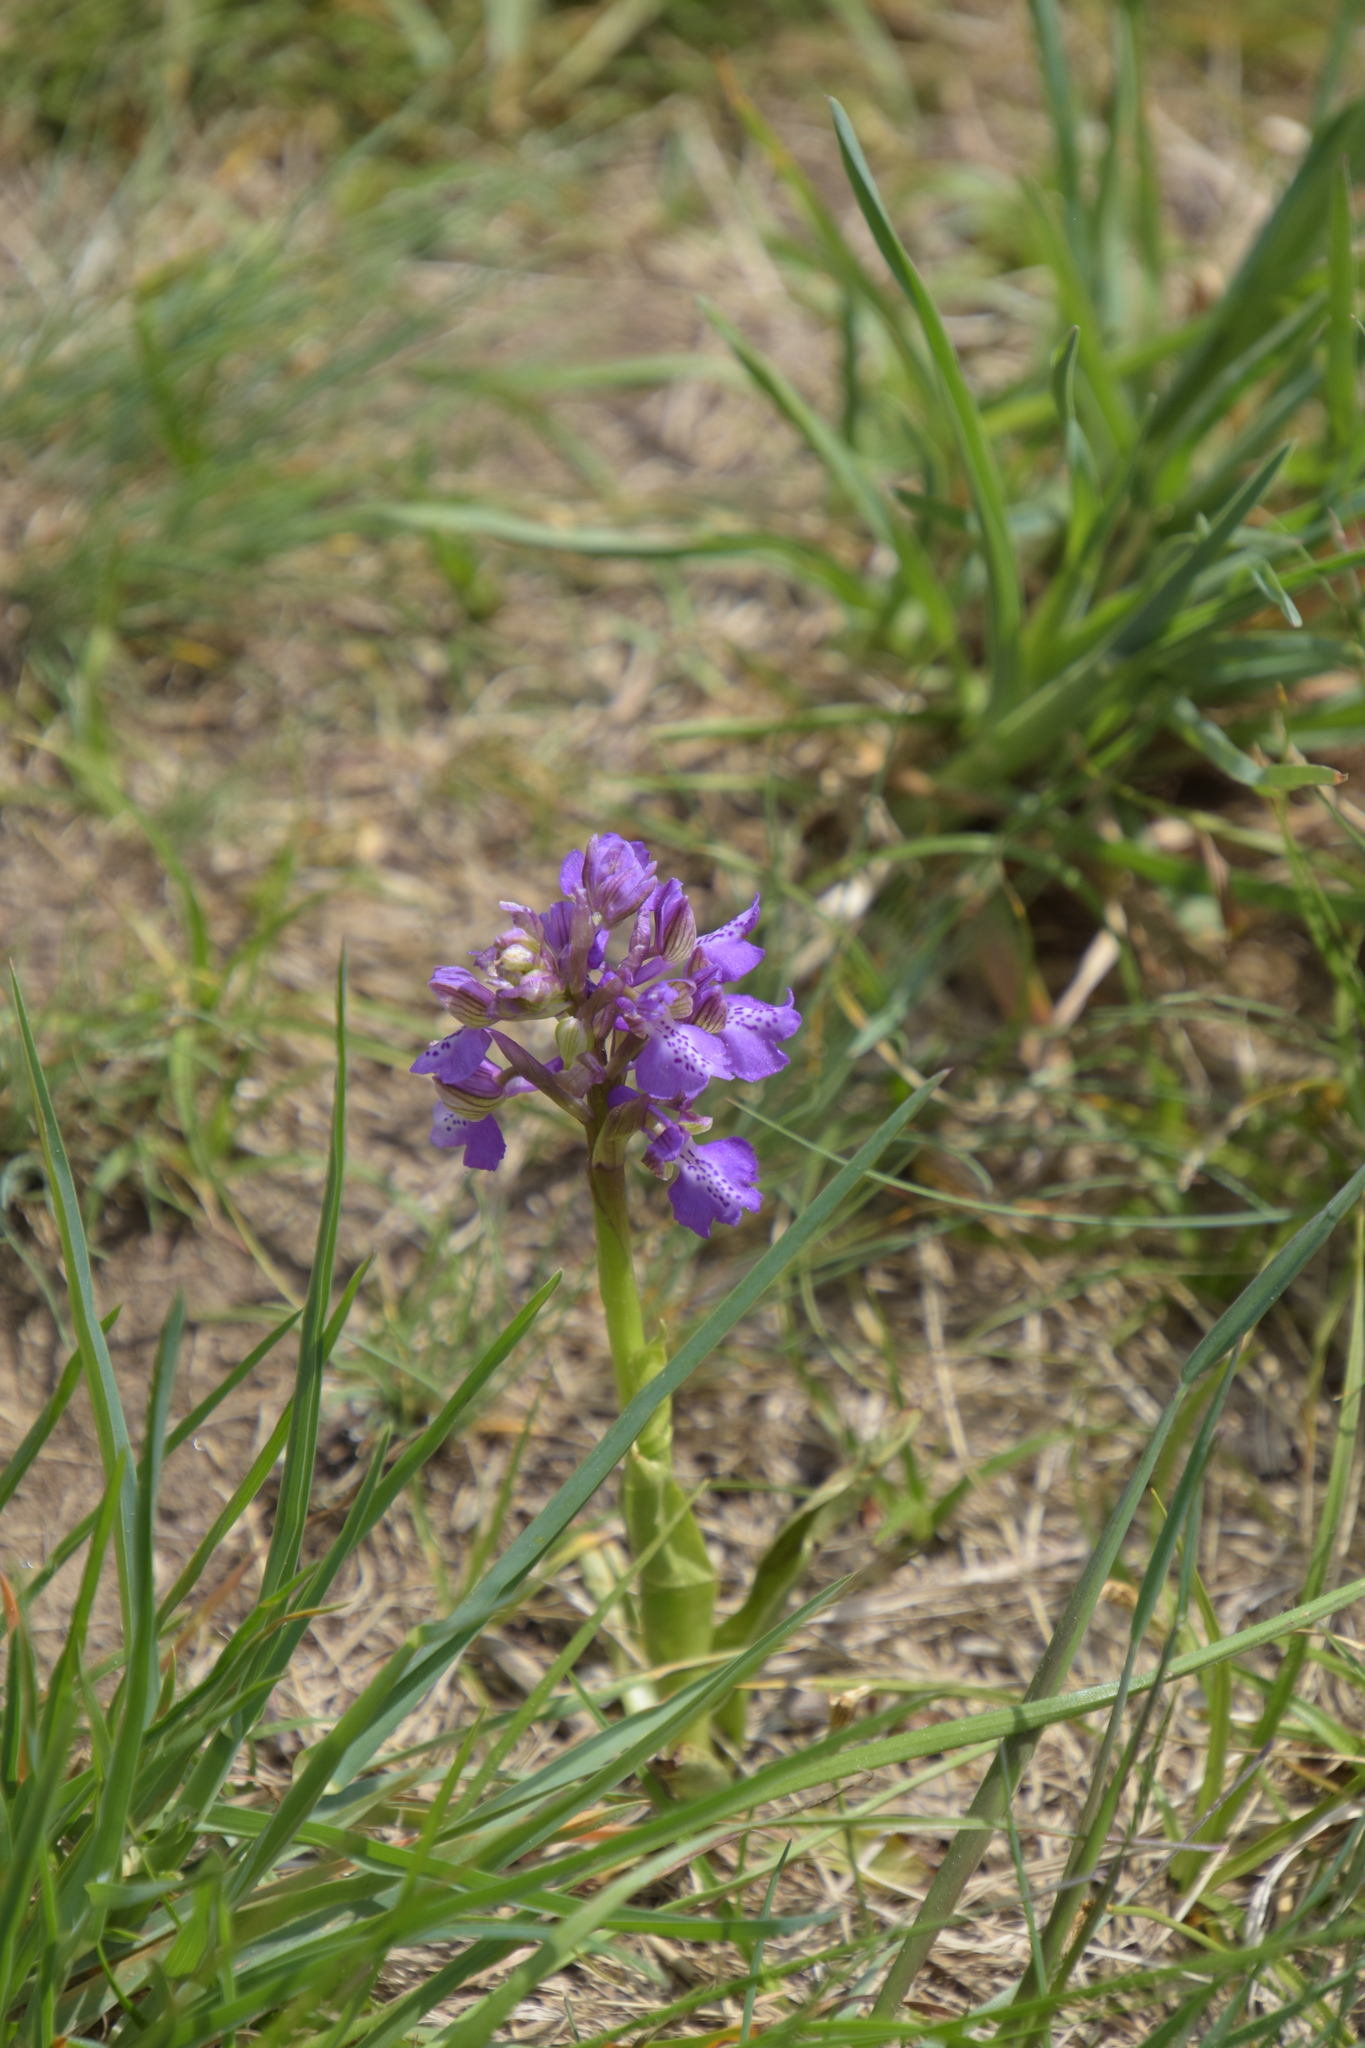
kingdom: Plantae
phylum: Tracheophyta
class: Liliopsida
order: Asparagales
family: Orchidaceae
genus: Anacamptis
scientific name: Anacamptis morio
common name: Green-winged orchid
